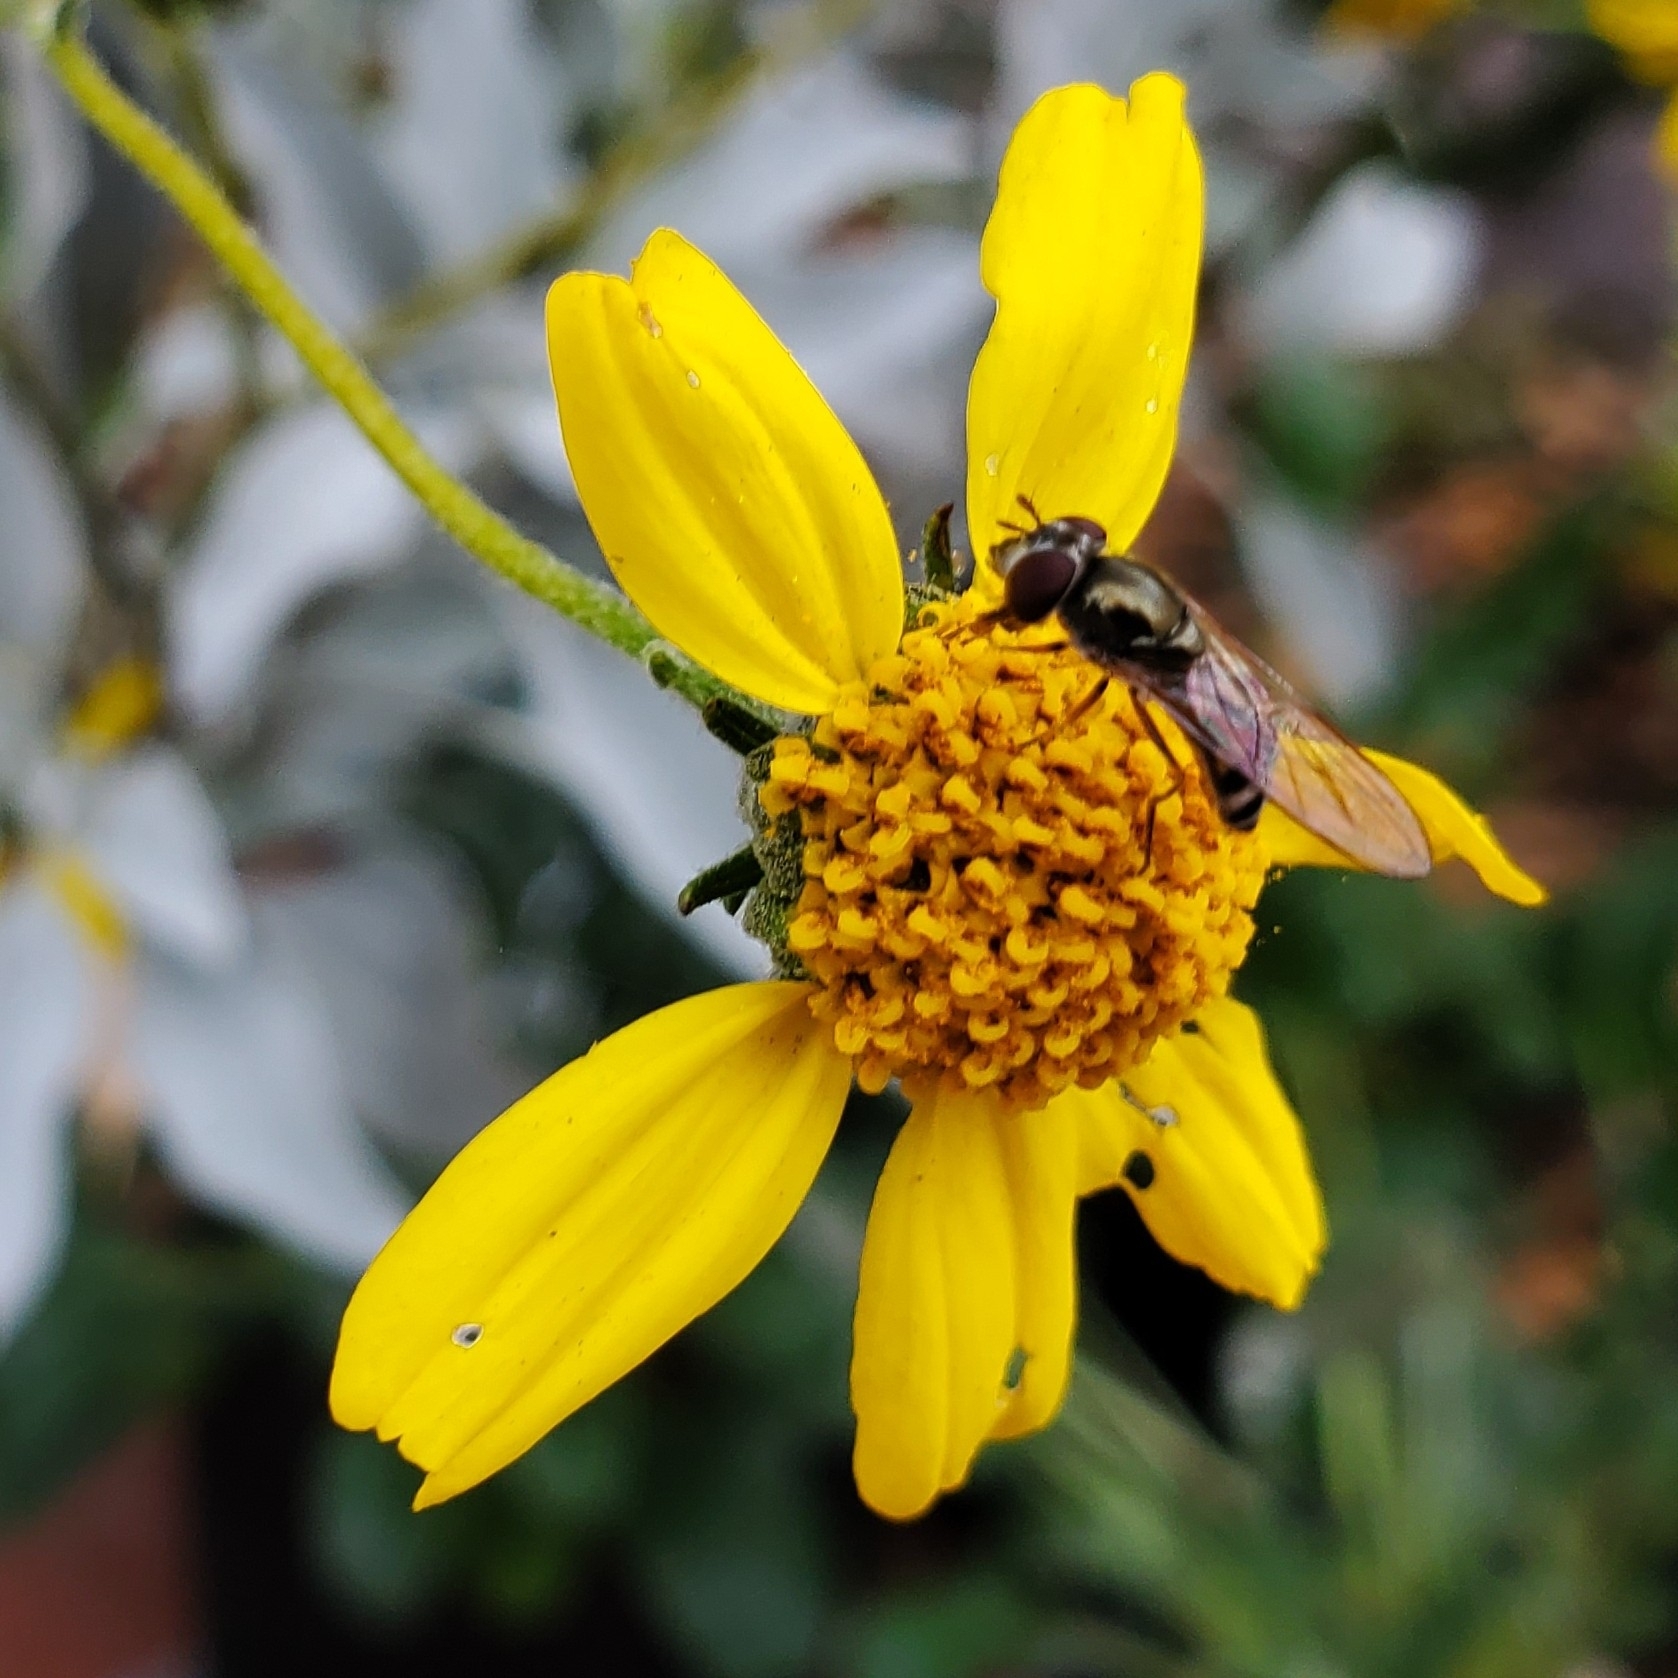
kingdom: Animalia
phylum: Arthropoda
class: Insecta
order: Diptera
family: Syrphidae
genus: Platycheirus
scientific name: Platycheirus trichopus
